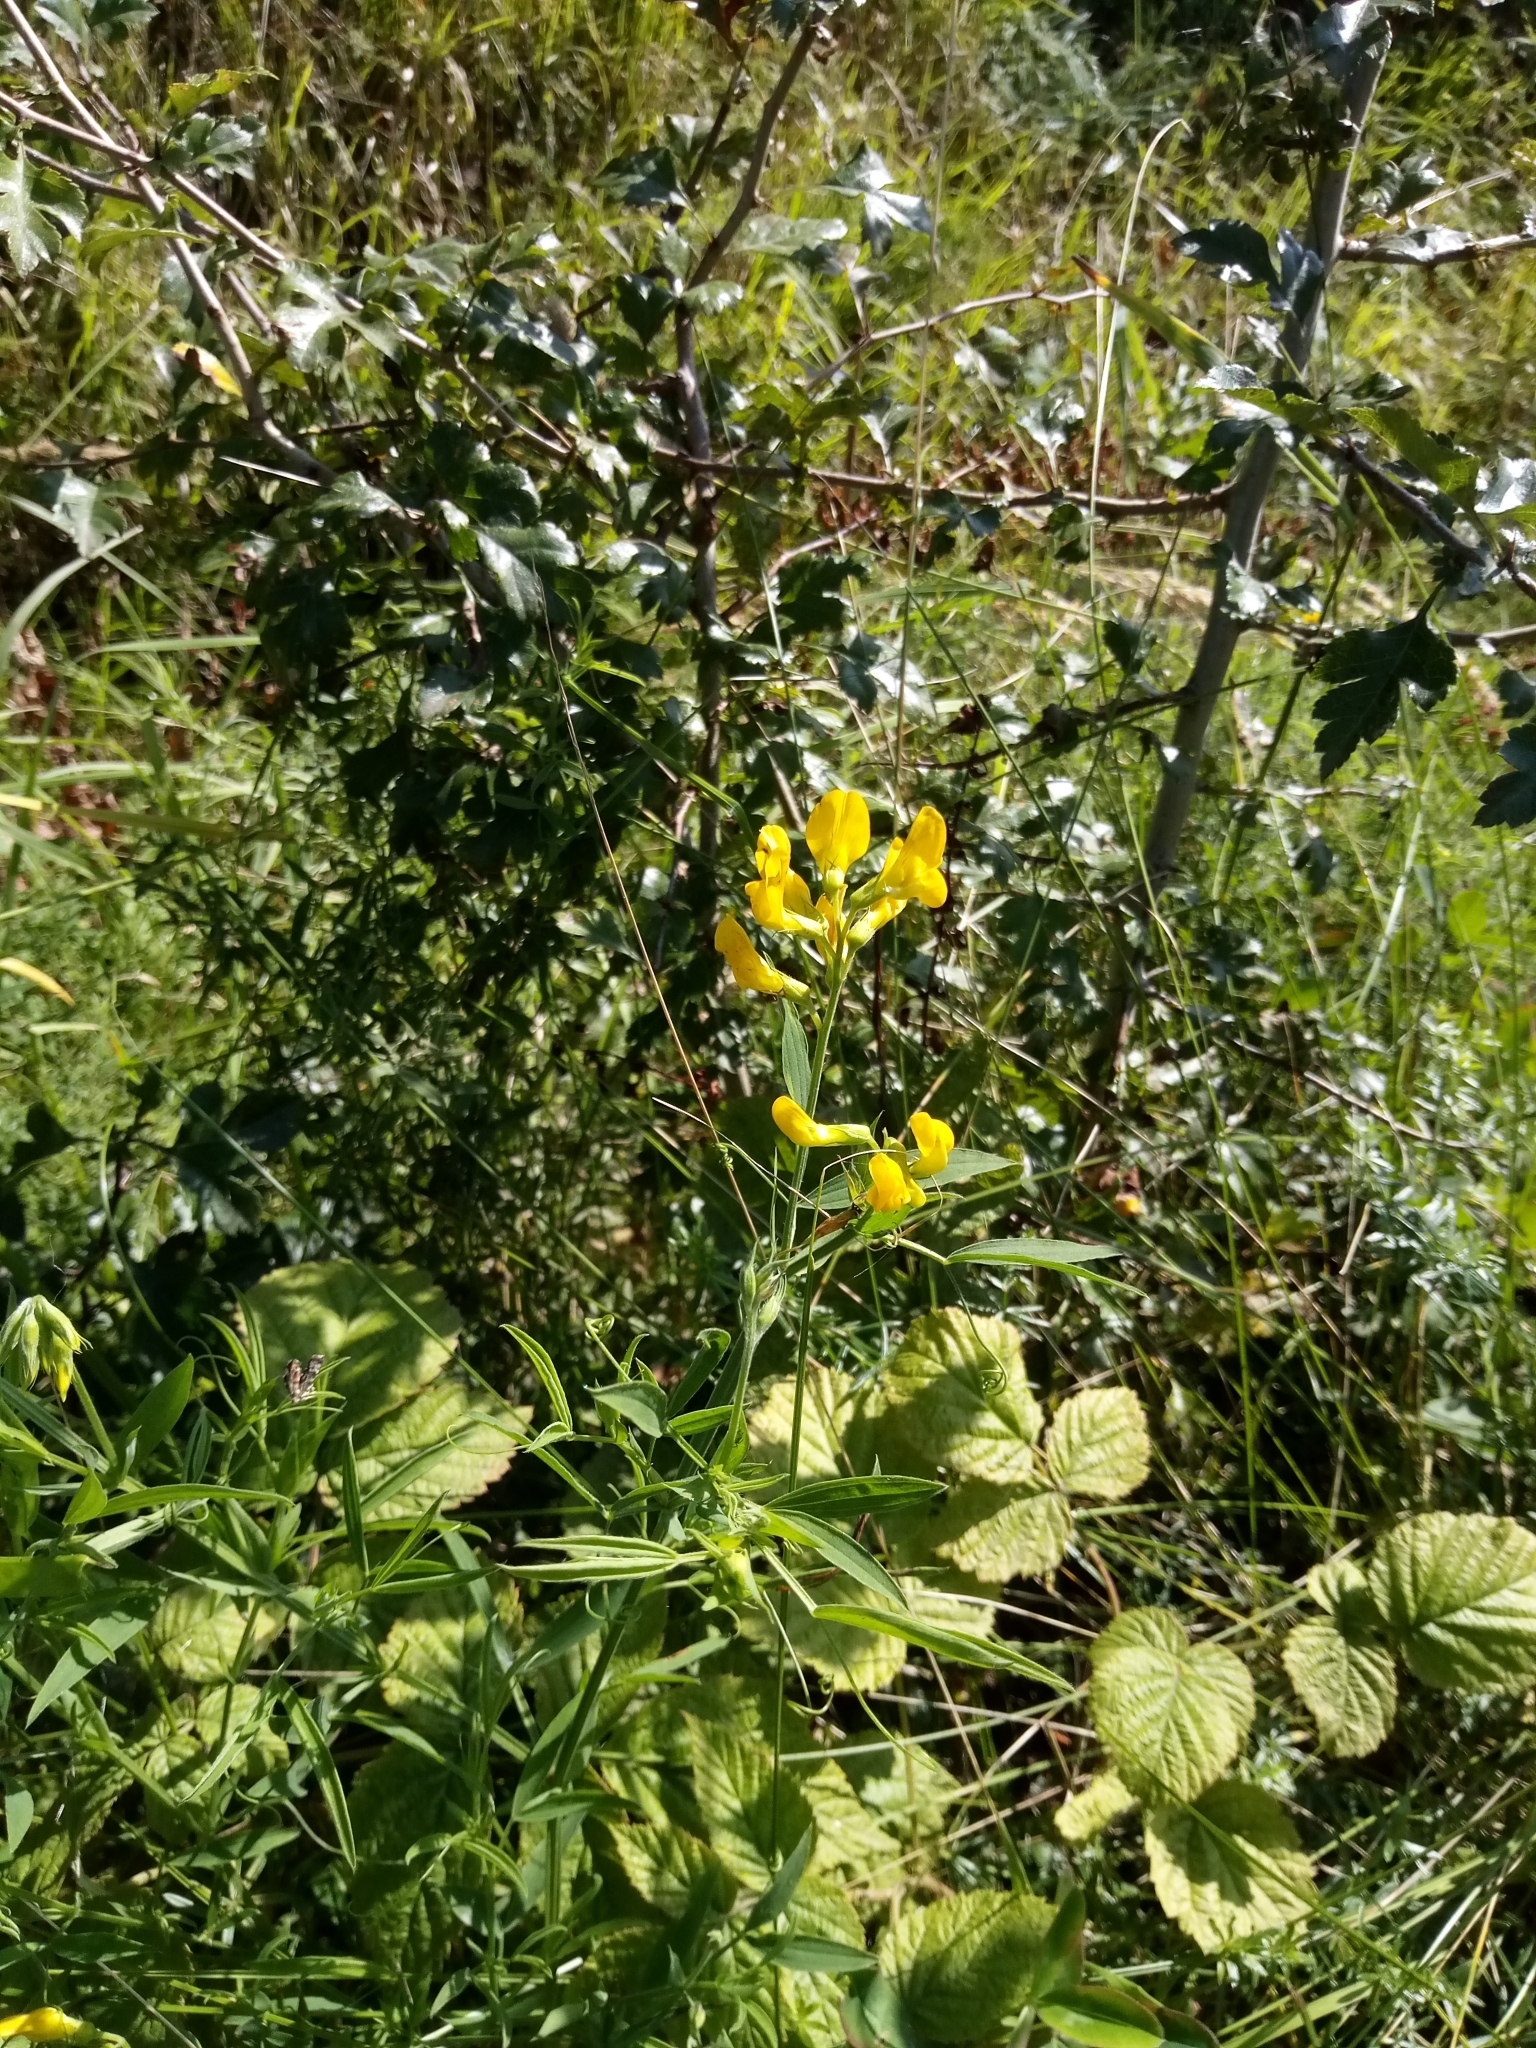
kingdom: Plantae
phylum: Tracheophyta
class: Magnoliopsida
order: Fabales
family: Fabaceae
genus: Lathyrus
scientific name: Lathyrus pratensis
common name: Meadow vetchling
